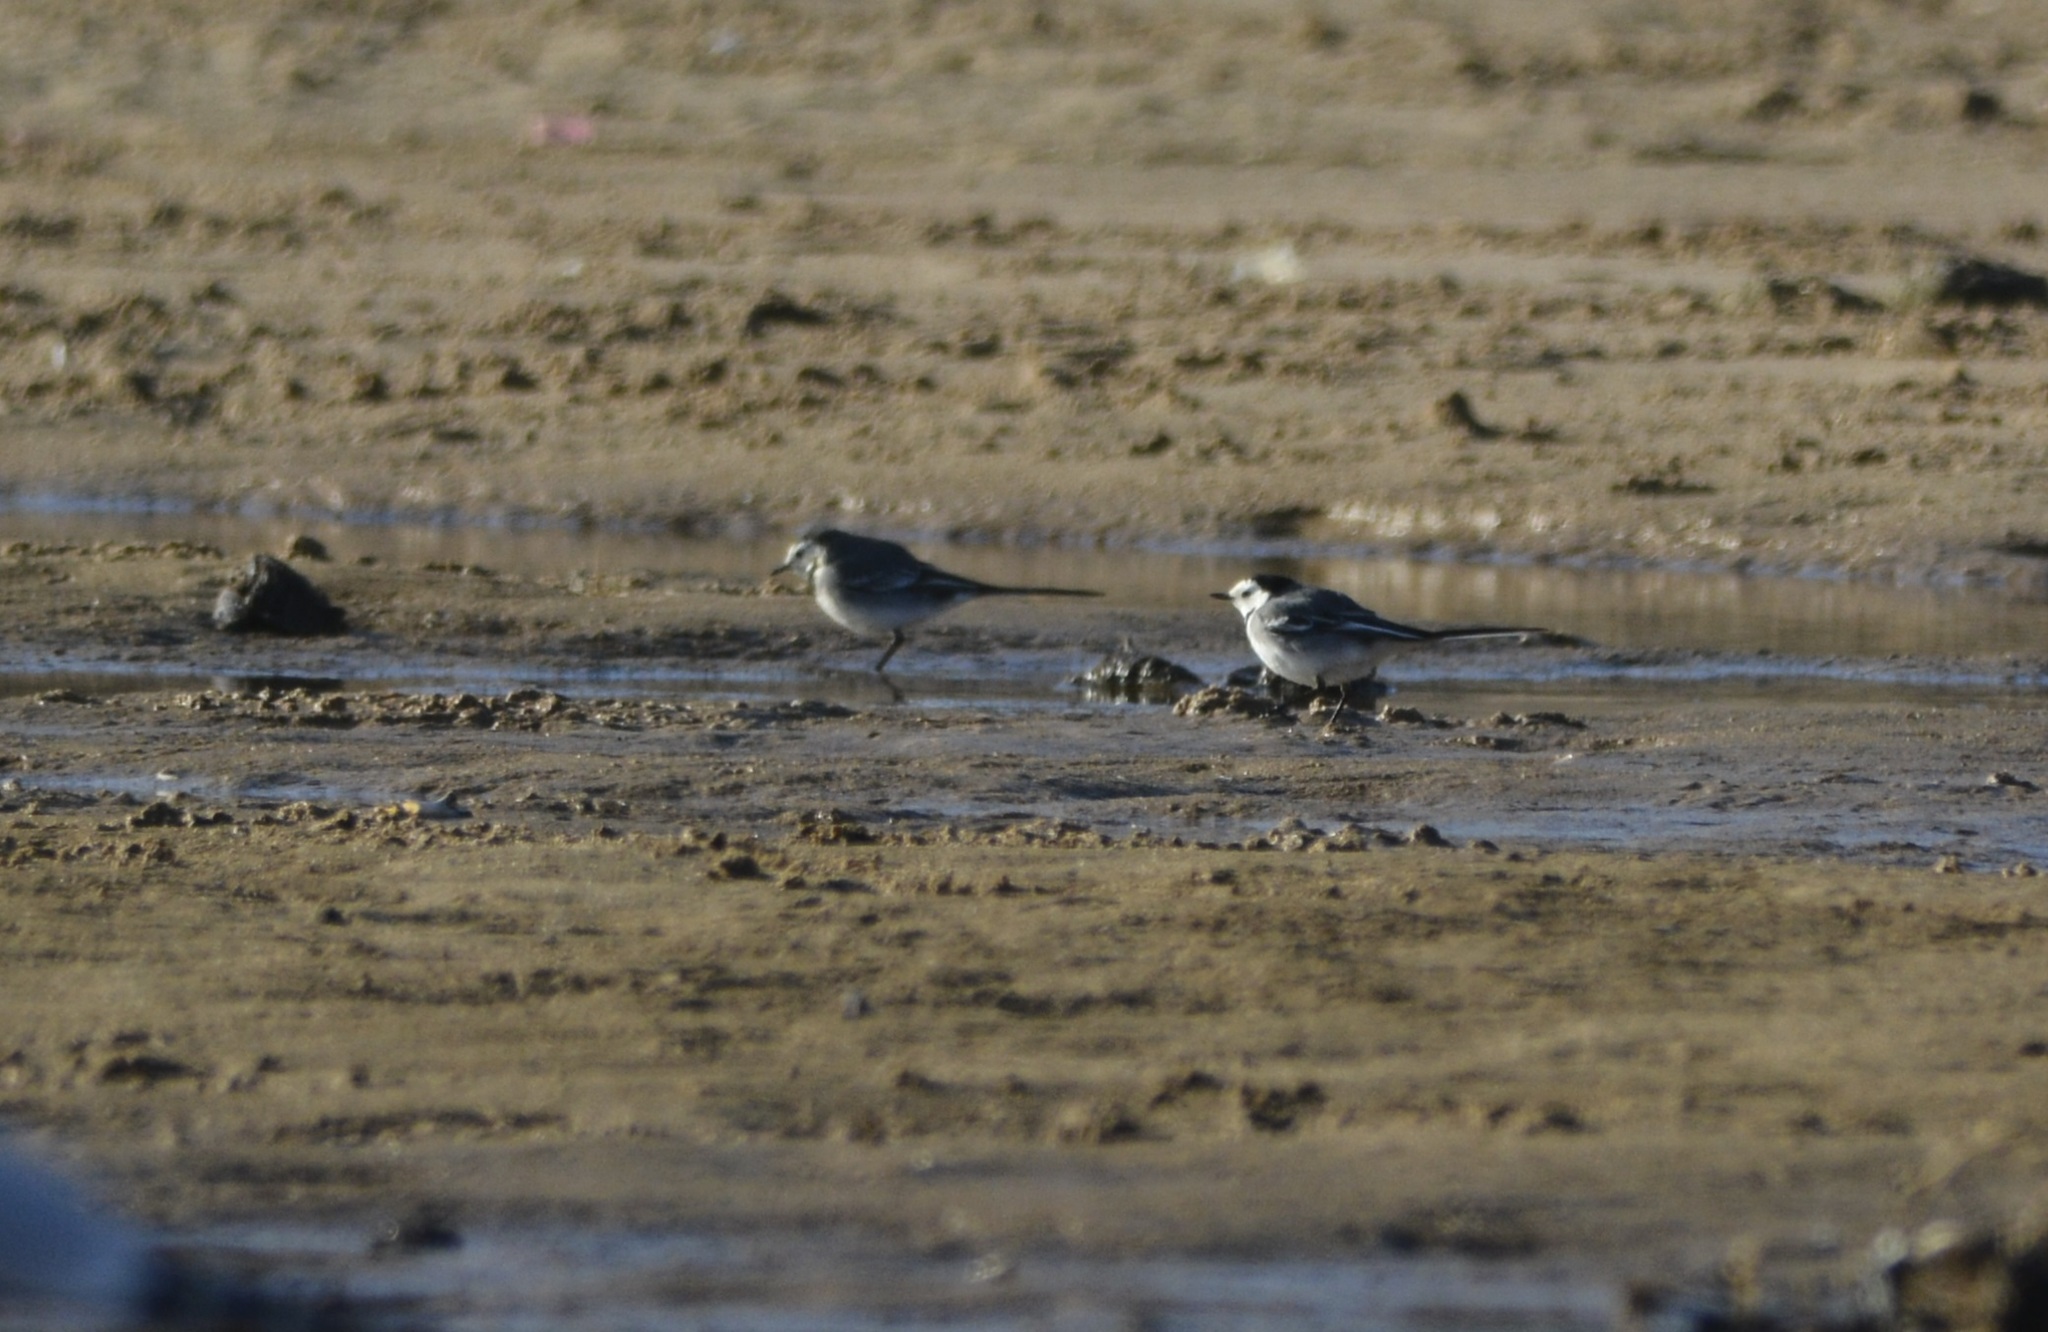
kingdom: Animalia
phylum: Chordata
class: Aves
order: Passeriformes
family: Motacillidae
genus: Motacilla
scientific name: Motacilla alba
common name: White wagtail
